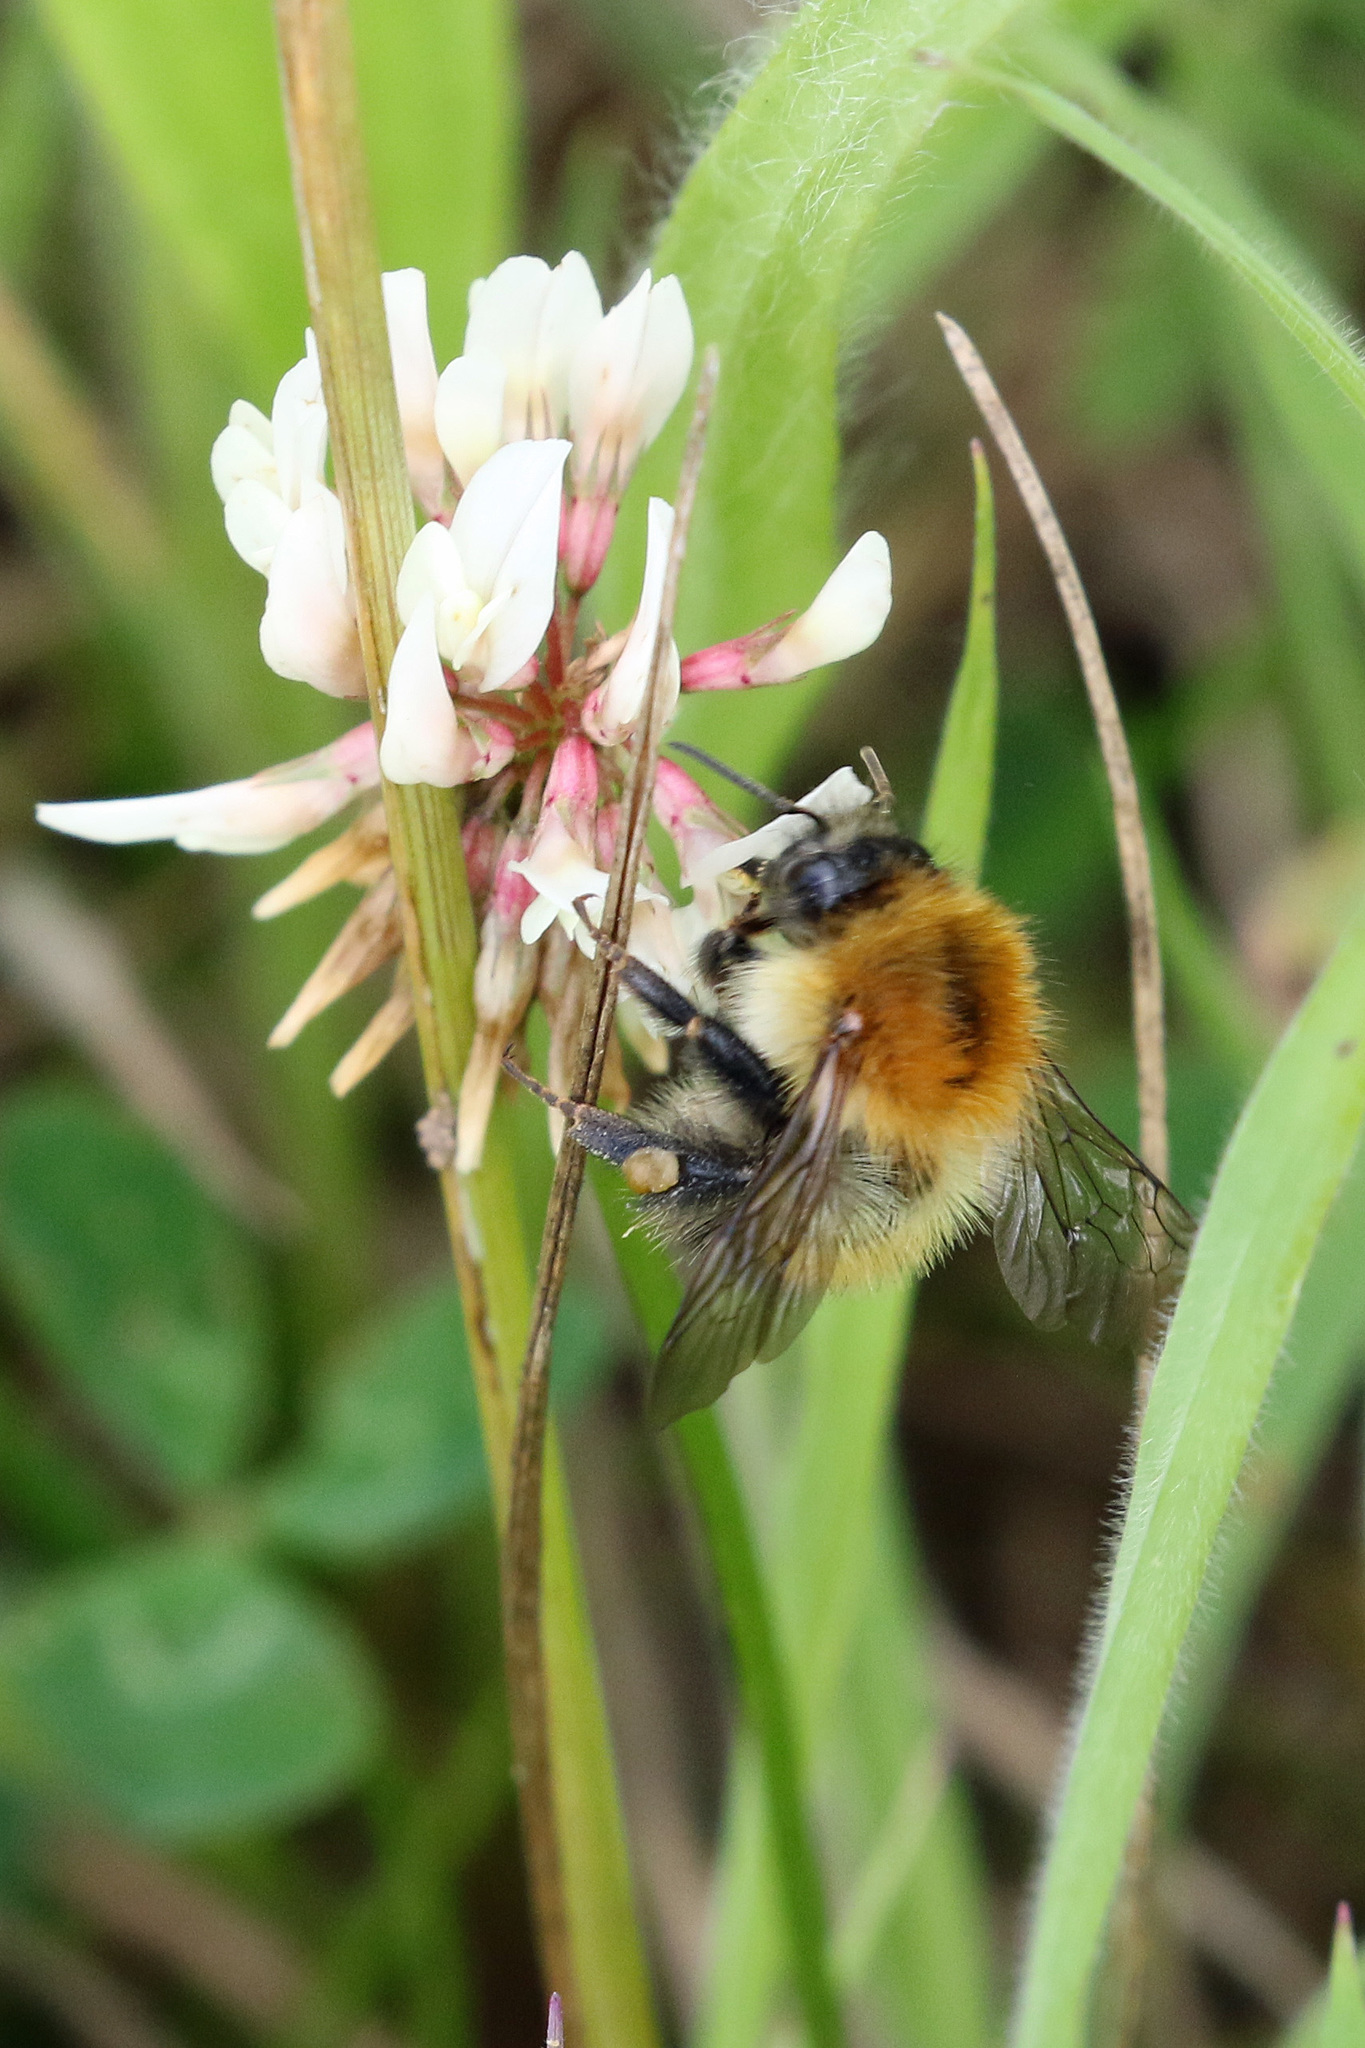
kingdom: Animalia
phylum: Arthropoda
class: Insecta
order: Hymenoptera
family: Apidae
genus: Bombus
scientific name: Bombus pascuorum
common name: Common carder bee
